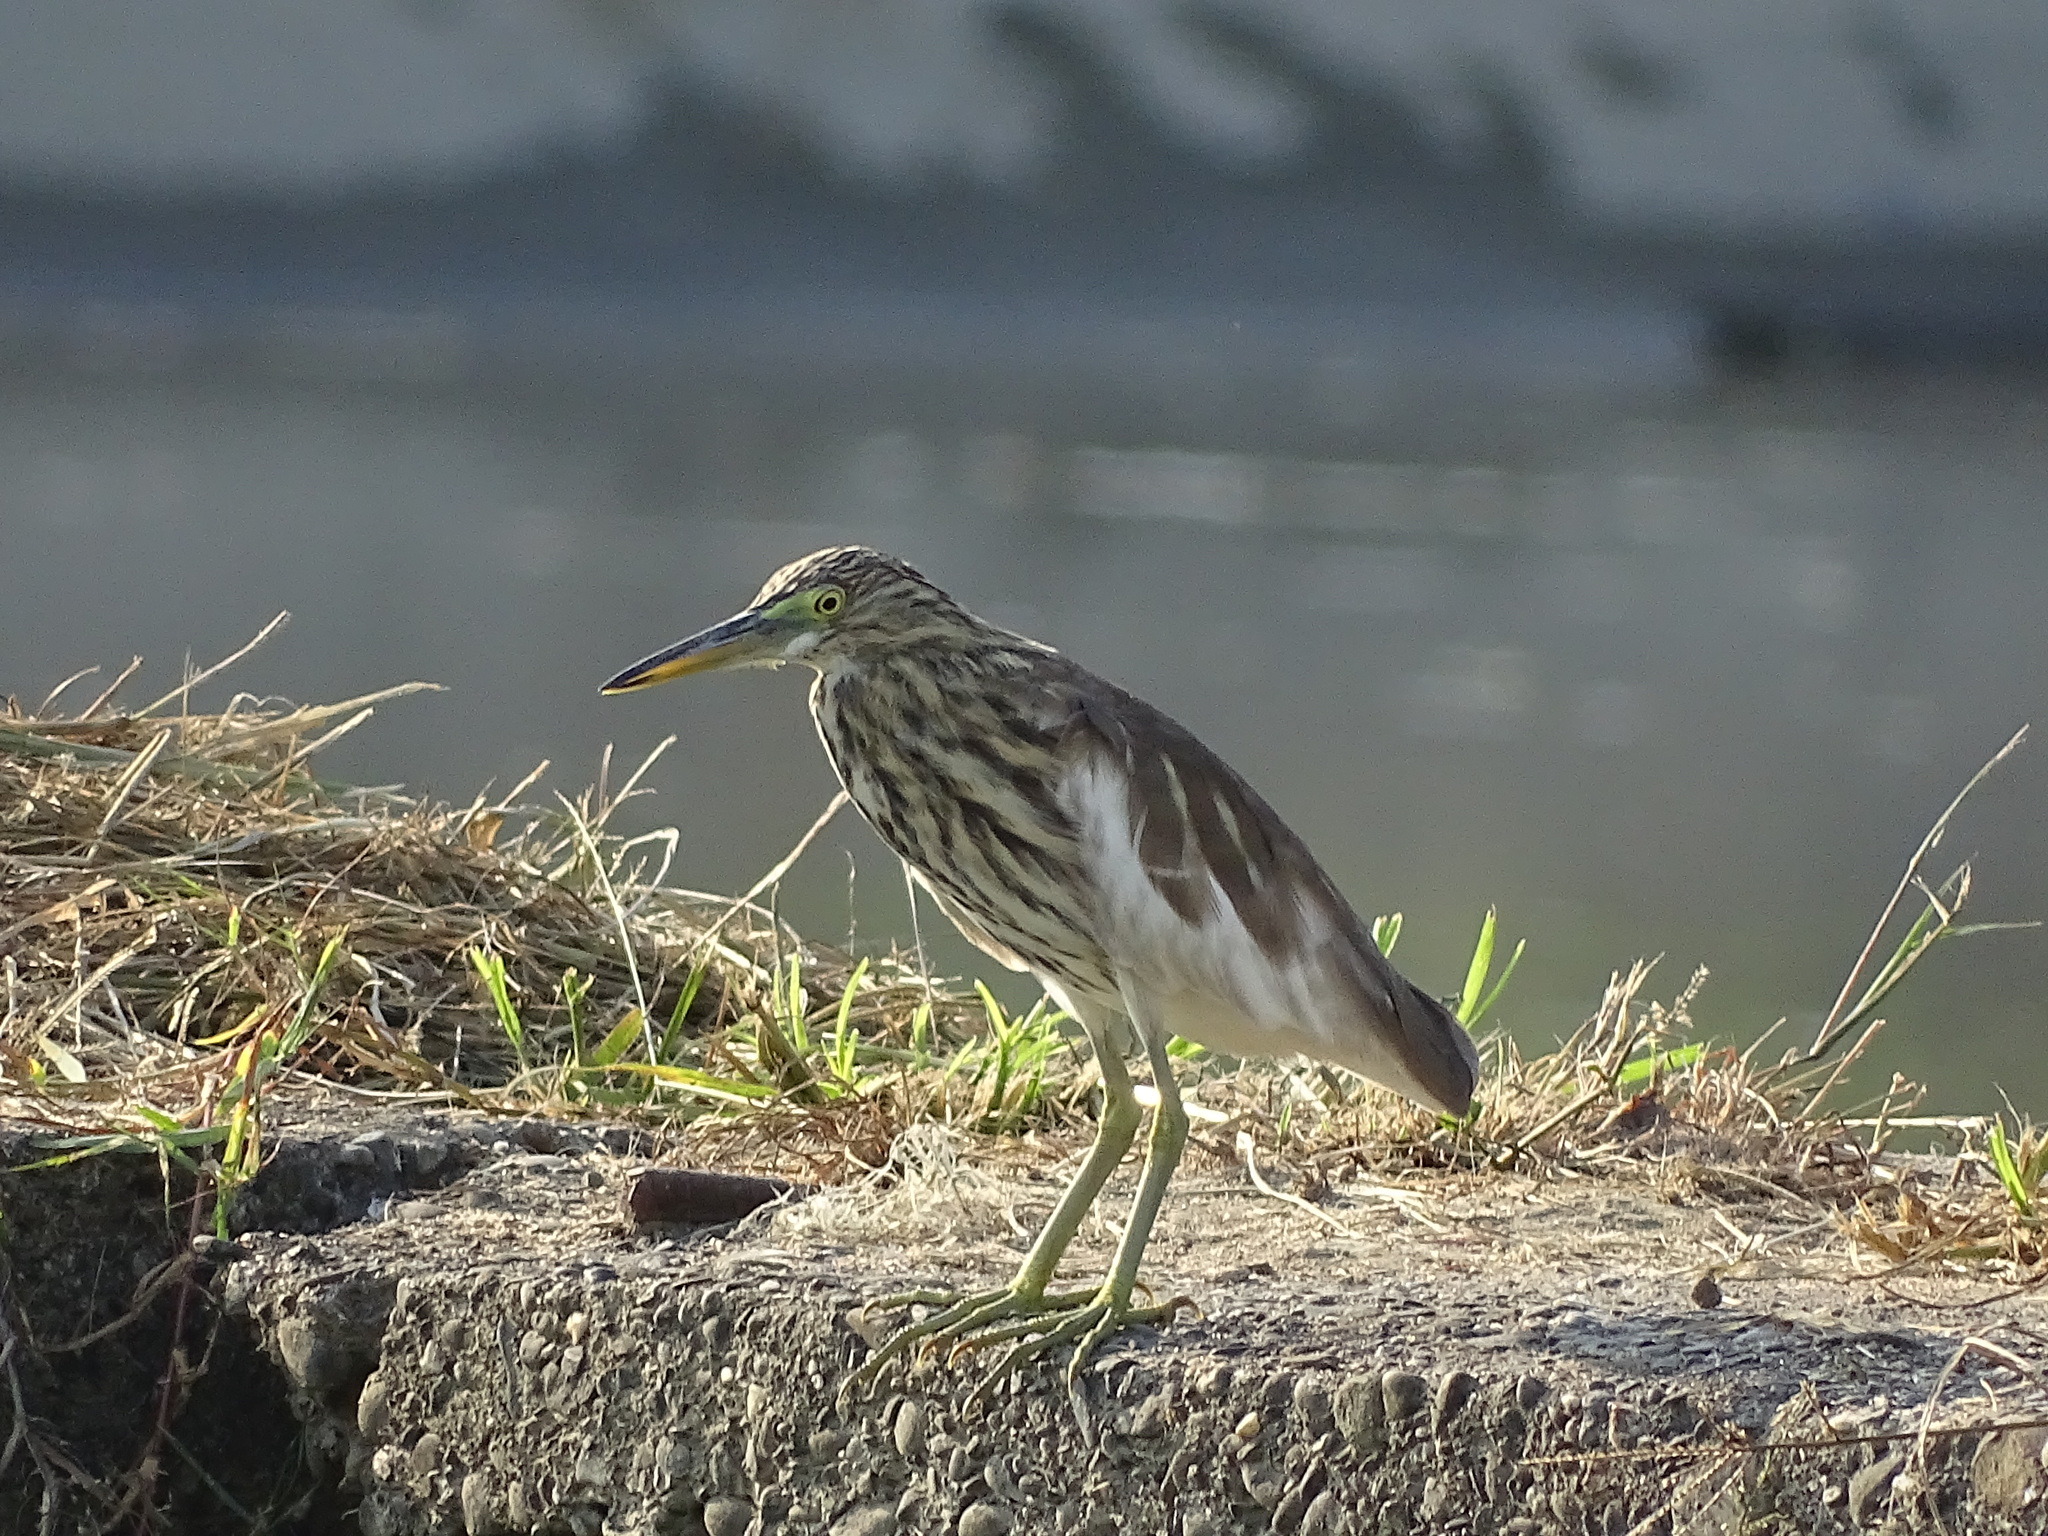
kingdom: Animalia
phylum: Chordata
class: Aves
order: Pelecaniformes
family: Ardeidae
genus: Ardeola
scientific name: Ardeola bacchus
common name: Chinese pond heron
